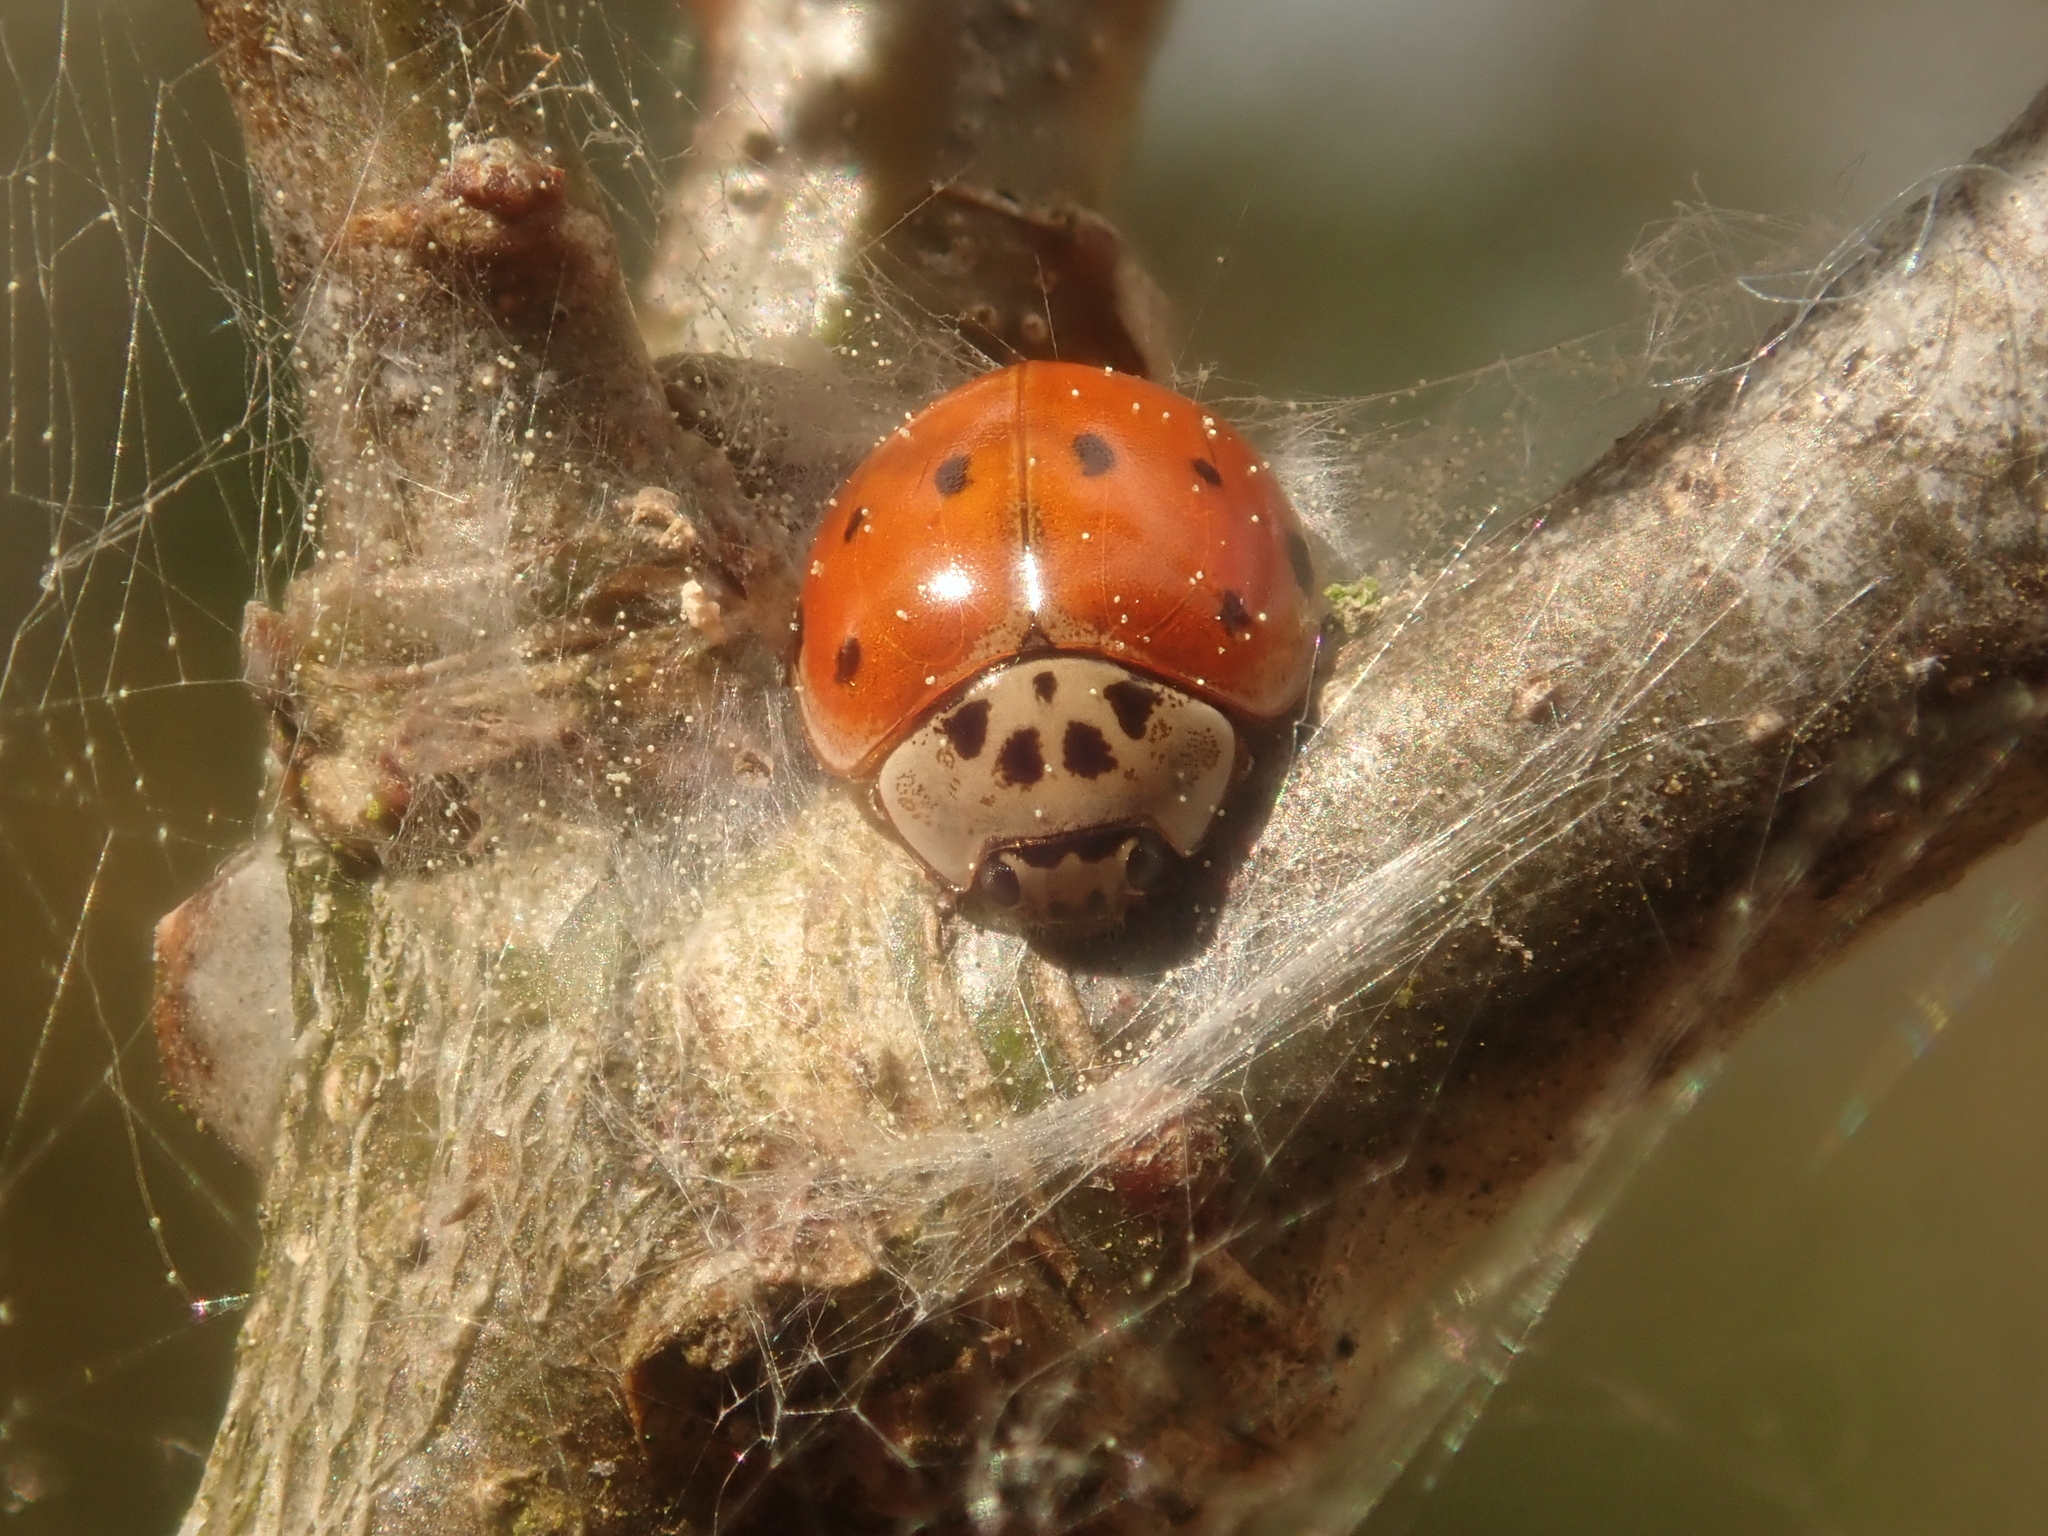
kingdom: Animalia
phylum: Arthropoda
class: Insecta
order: Coleoptera
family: Coccinellidae
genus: Adalia
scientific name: Adalia decempunctata
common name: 10-spot ladybird
